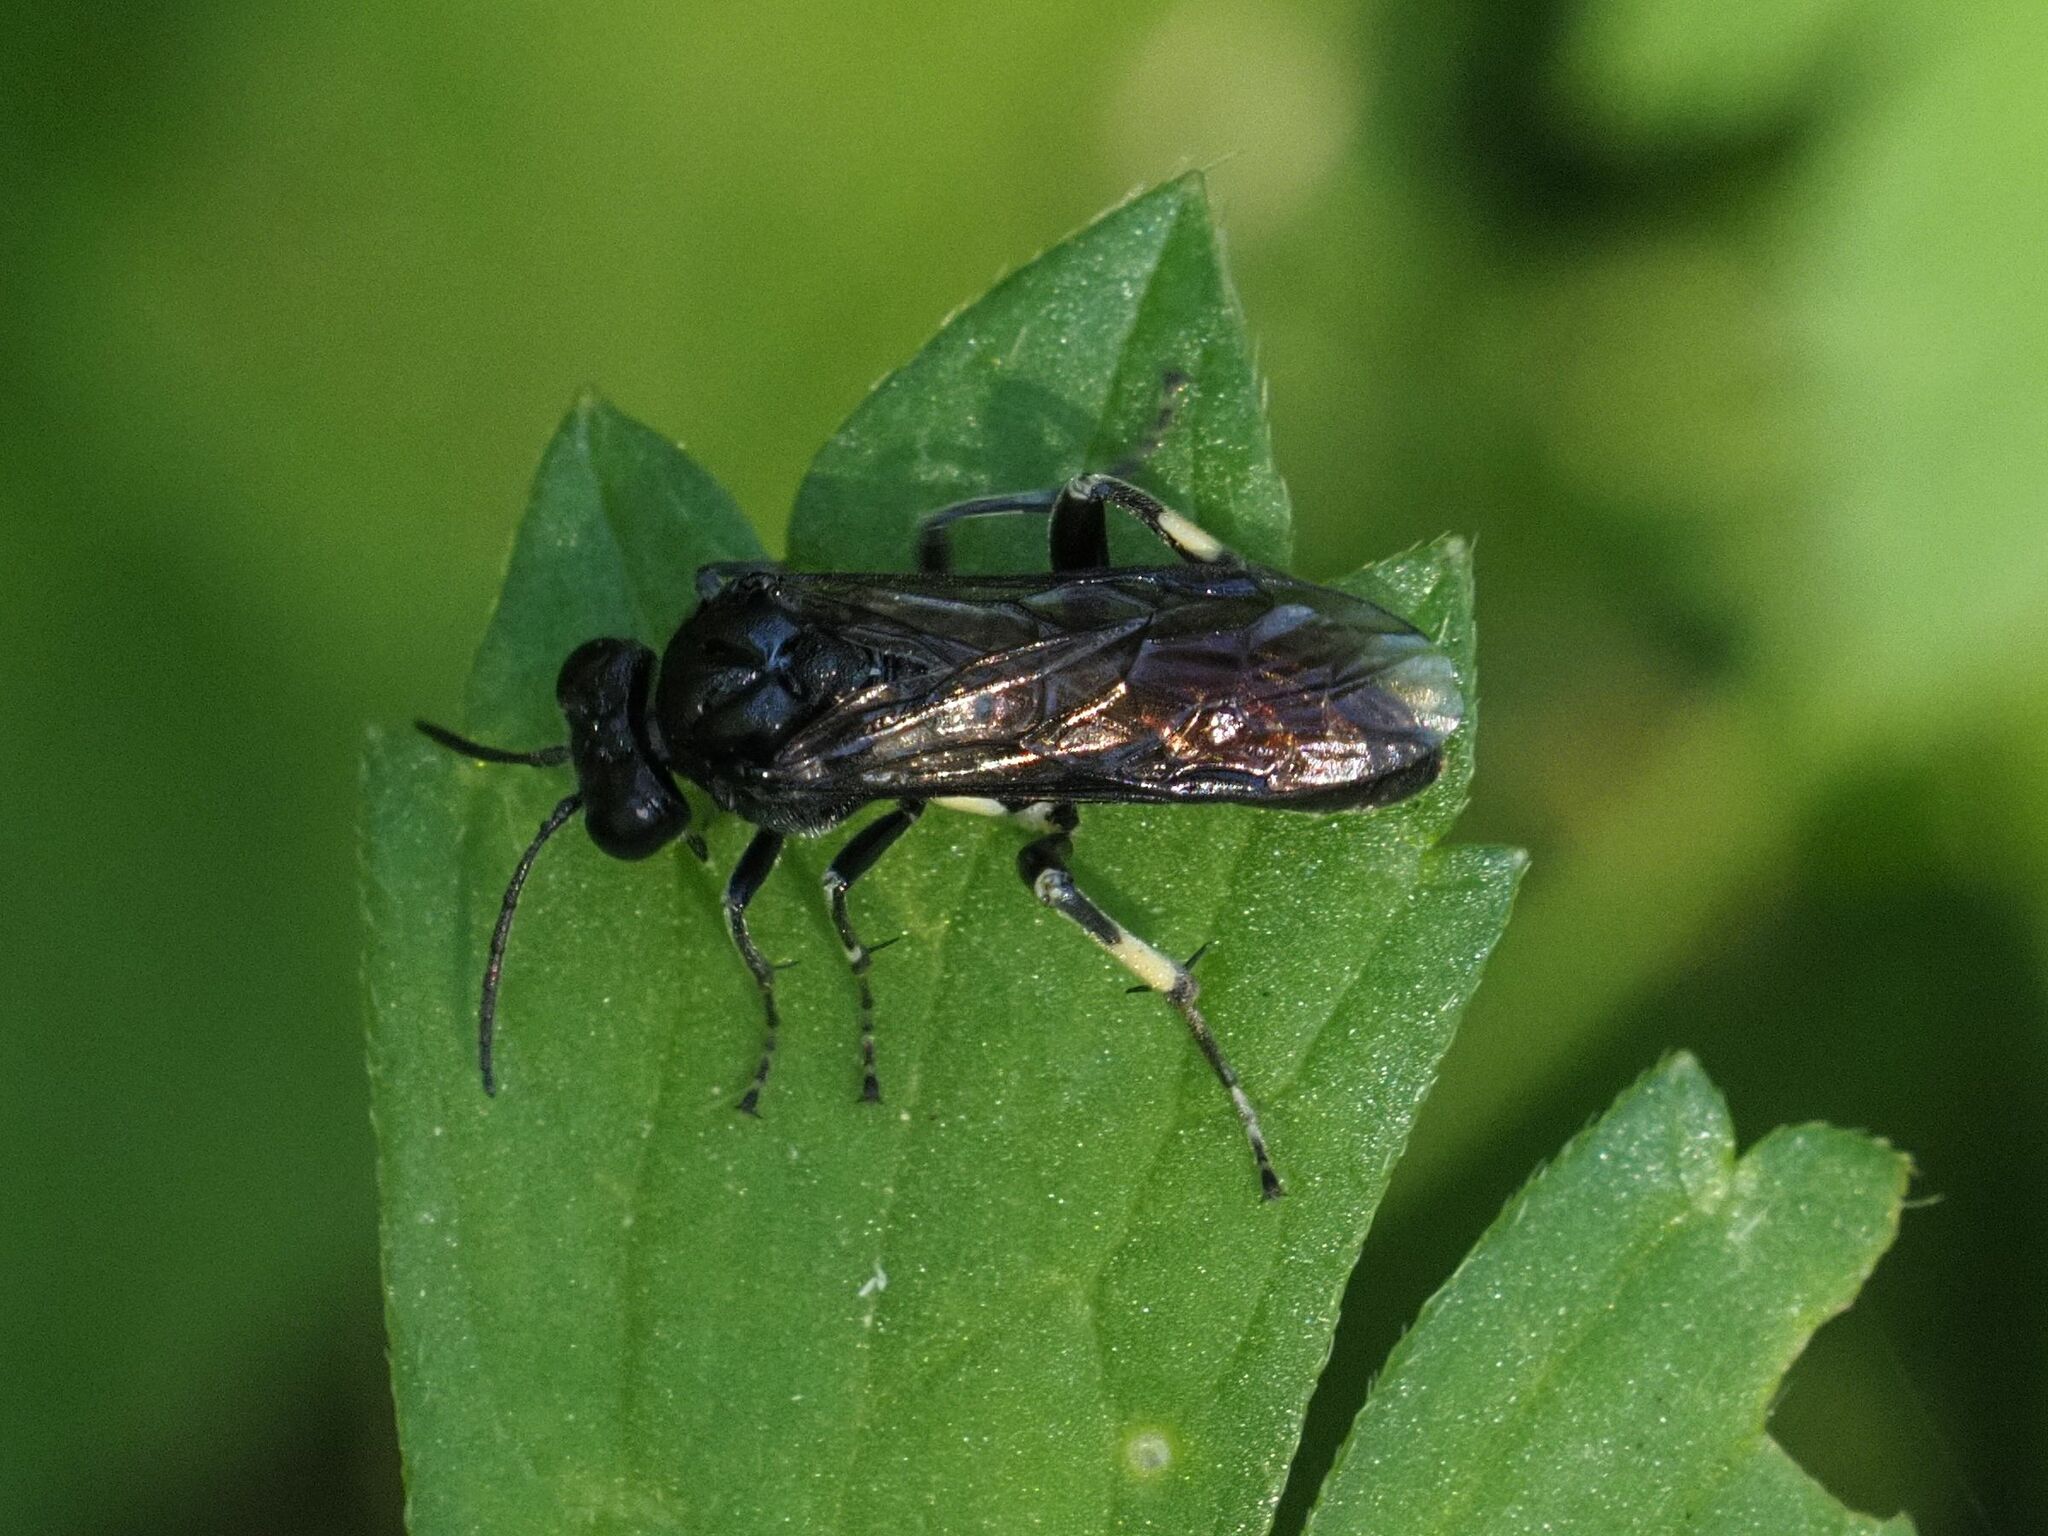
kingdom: Animalia
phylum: Arthropoda
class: Insecta
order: Hymenoptera
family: Tenthredinidae
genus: Macrophya
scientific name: Macrophya ribis
